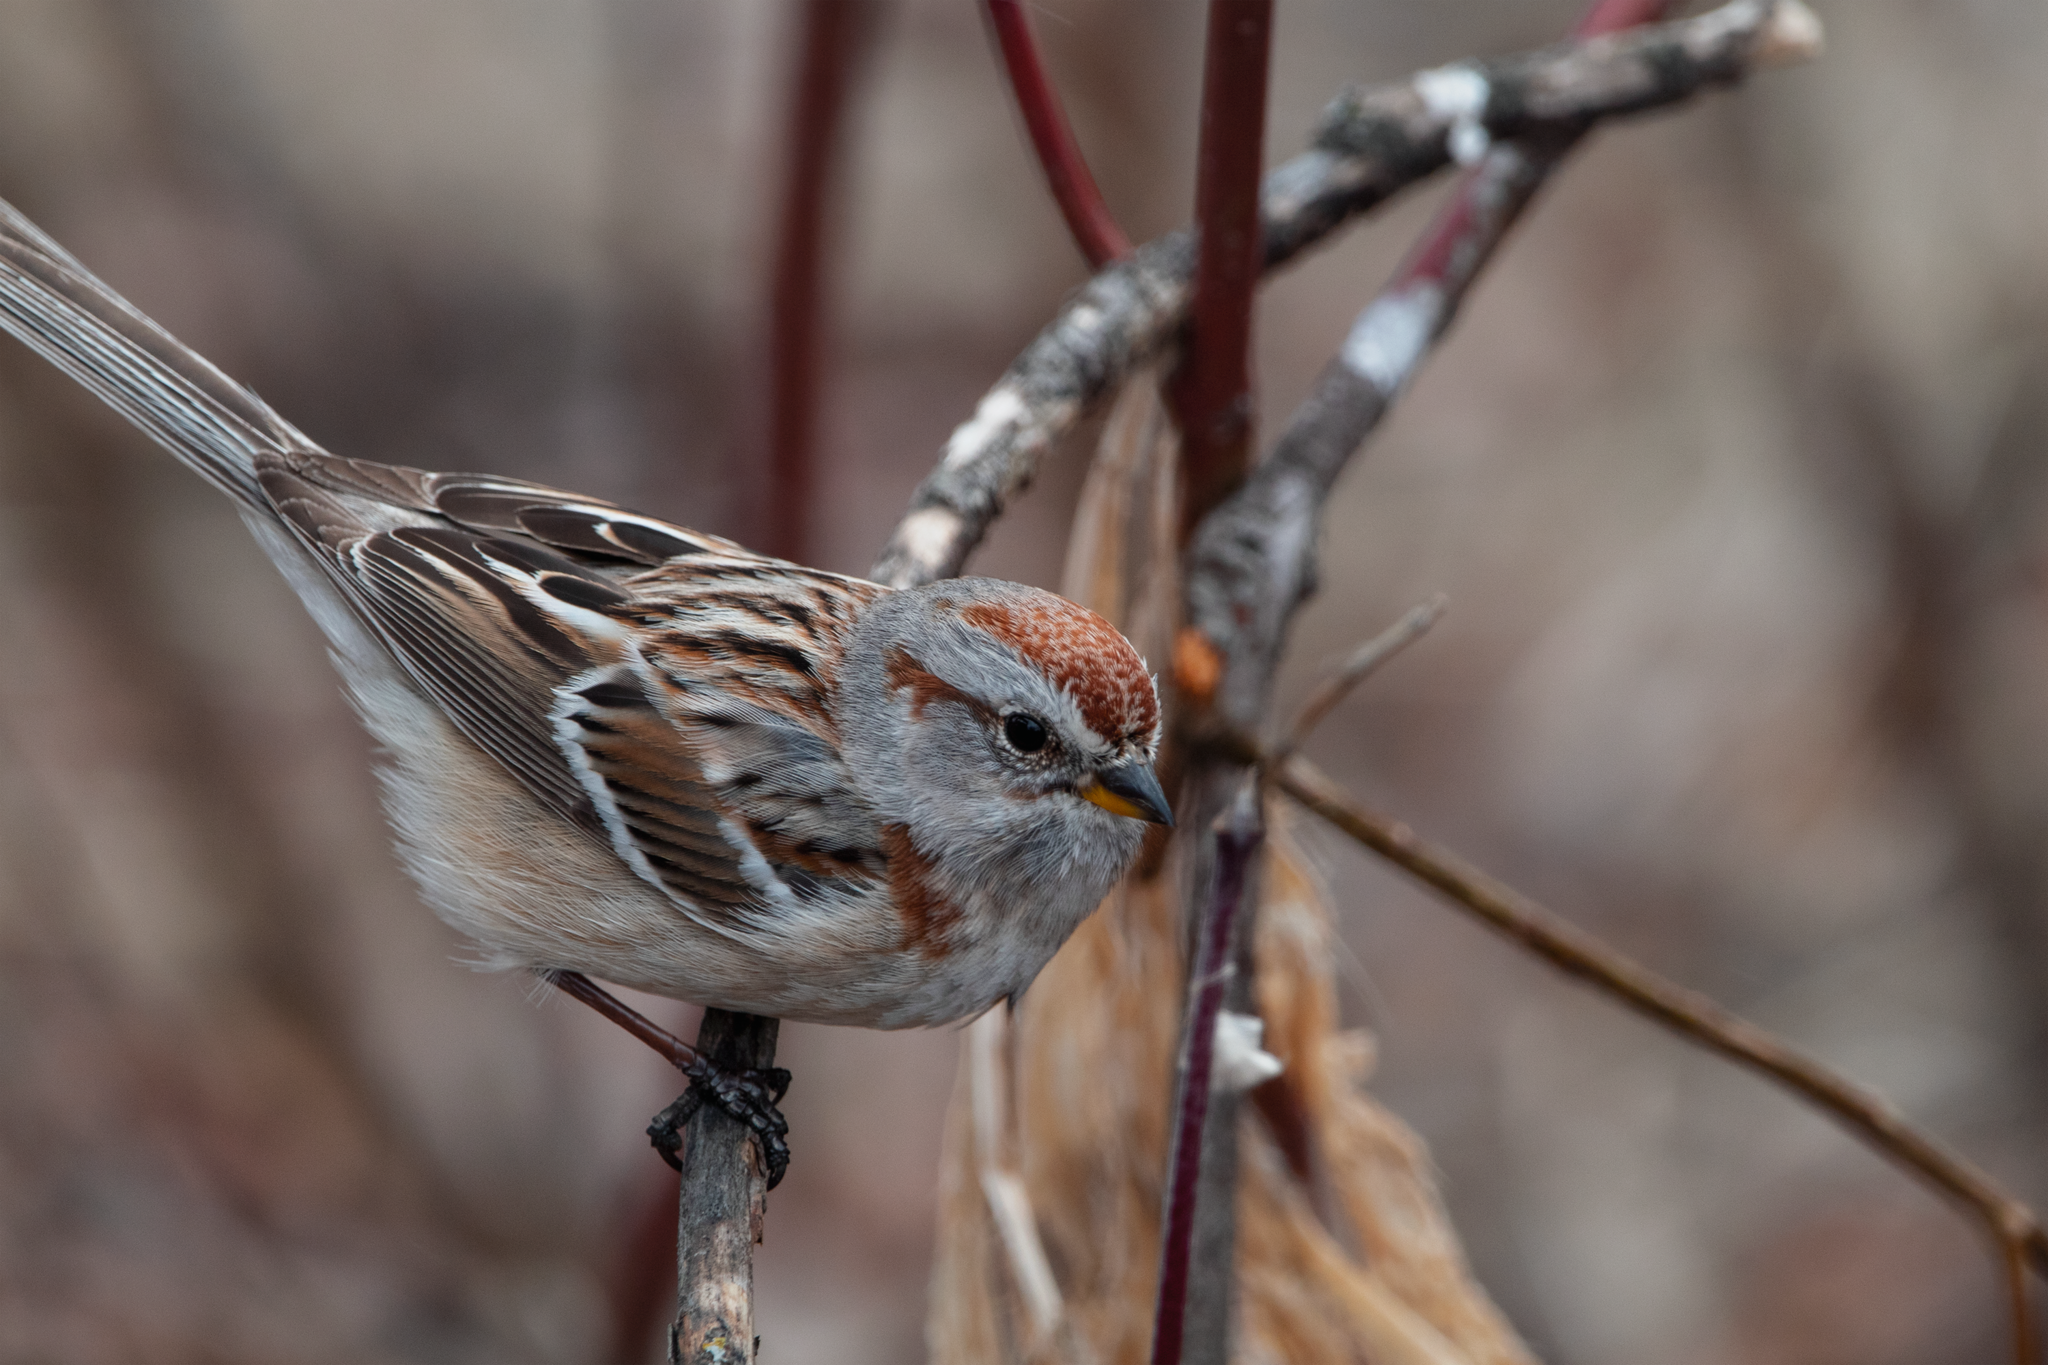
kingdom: Animalia
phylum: Chordata
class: Aves
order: Passeriformes
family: Passerellidae
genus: Spizelloides
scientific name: Spizelloides arborea
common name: American tree sparrow
